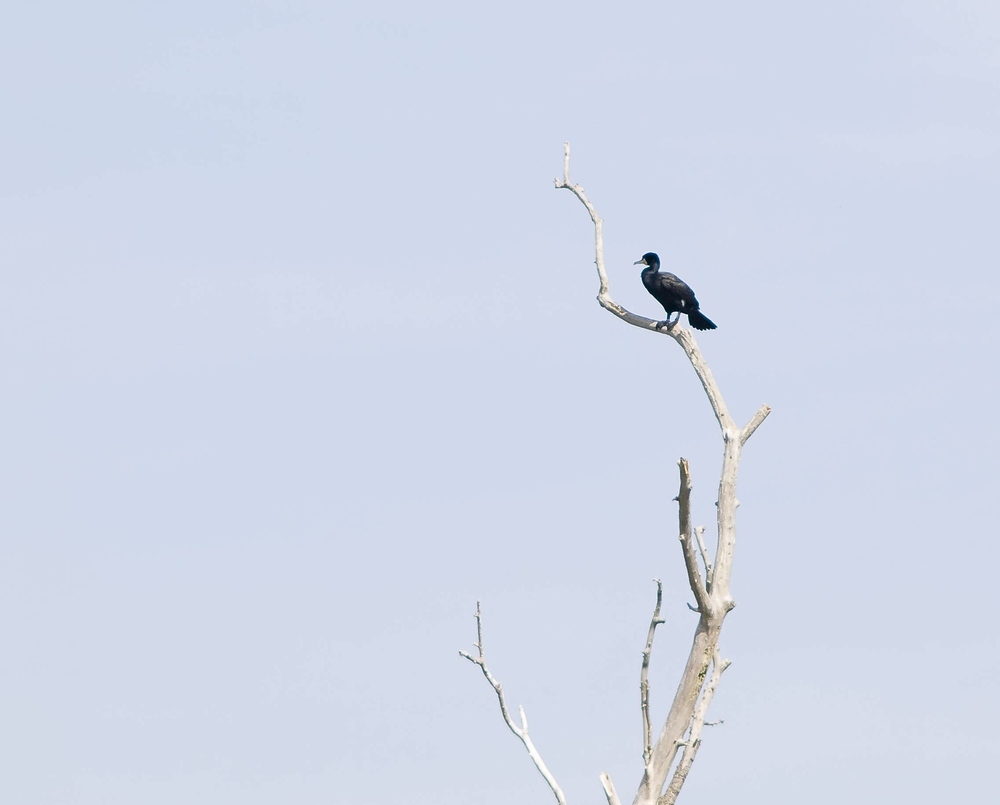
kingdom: Animalia
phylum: Chordata
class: Aves
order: Suliformes
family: Phalacrocoracidae
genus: Phalacrocorax
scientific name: Phalacrocorax carbo
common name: Great cormorant
